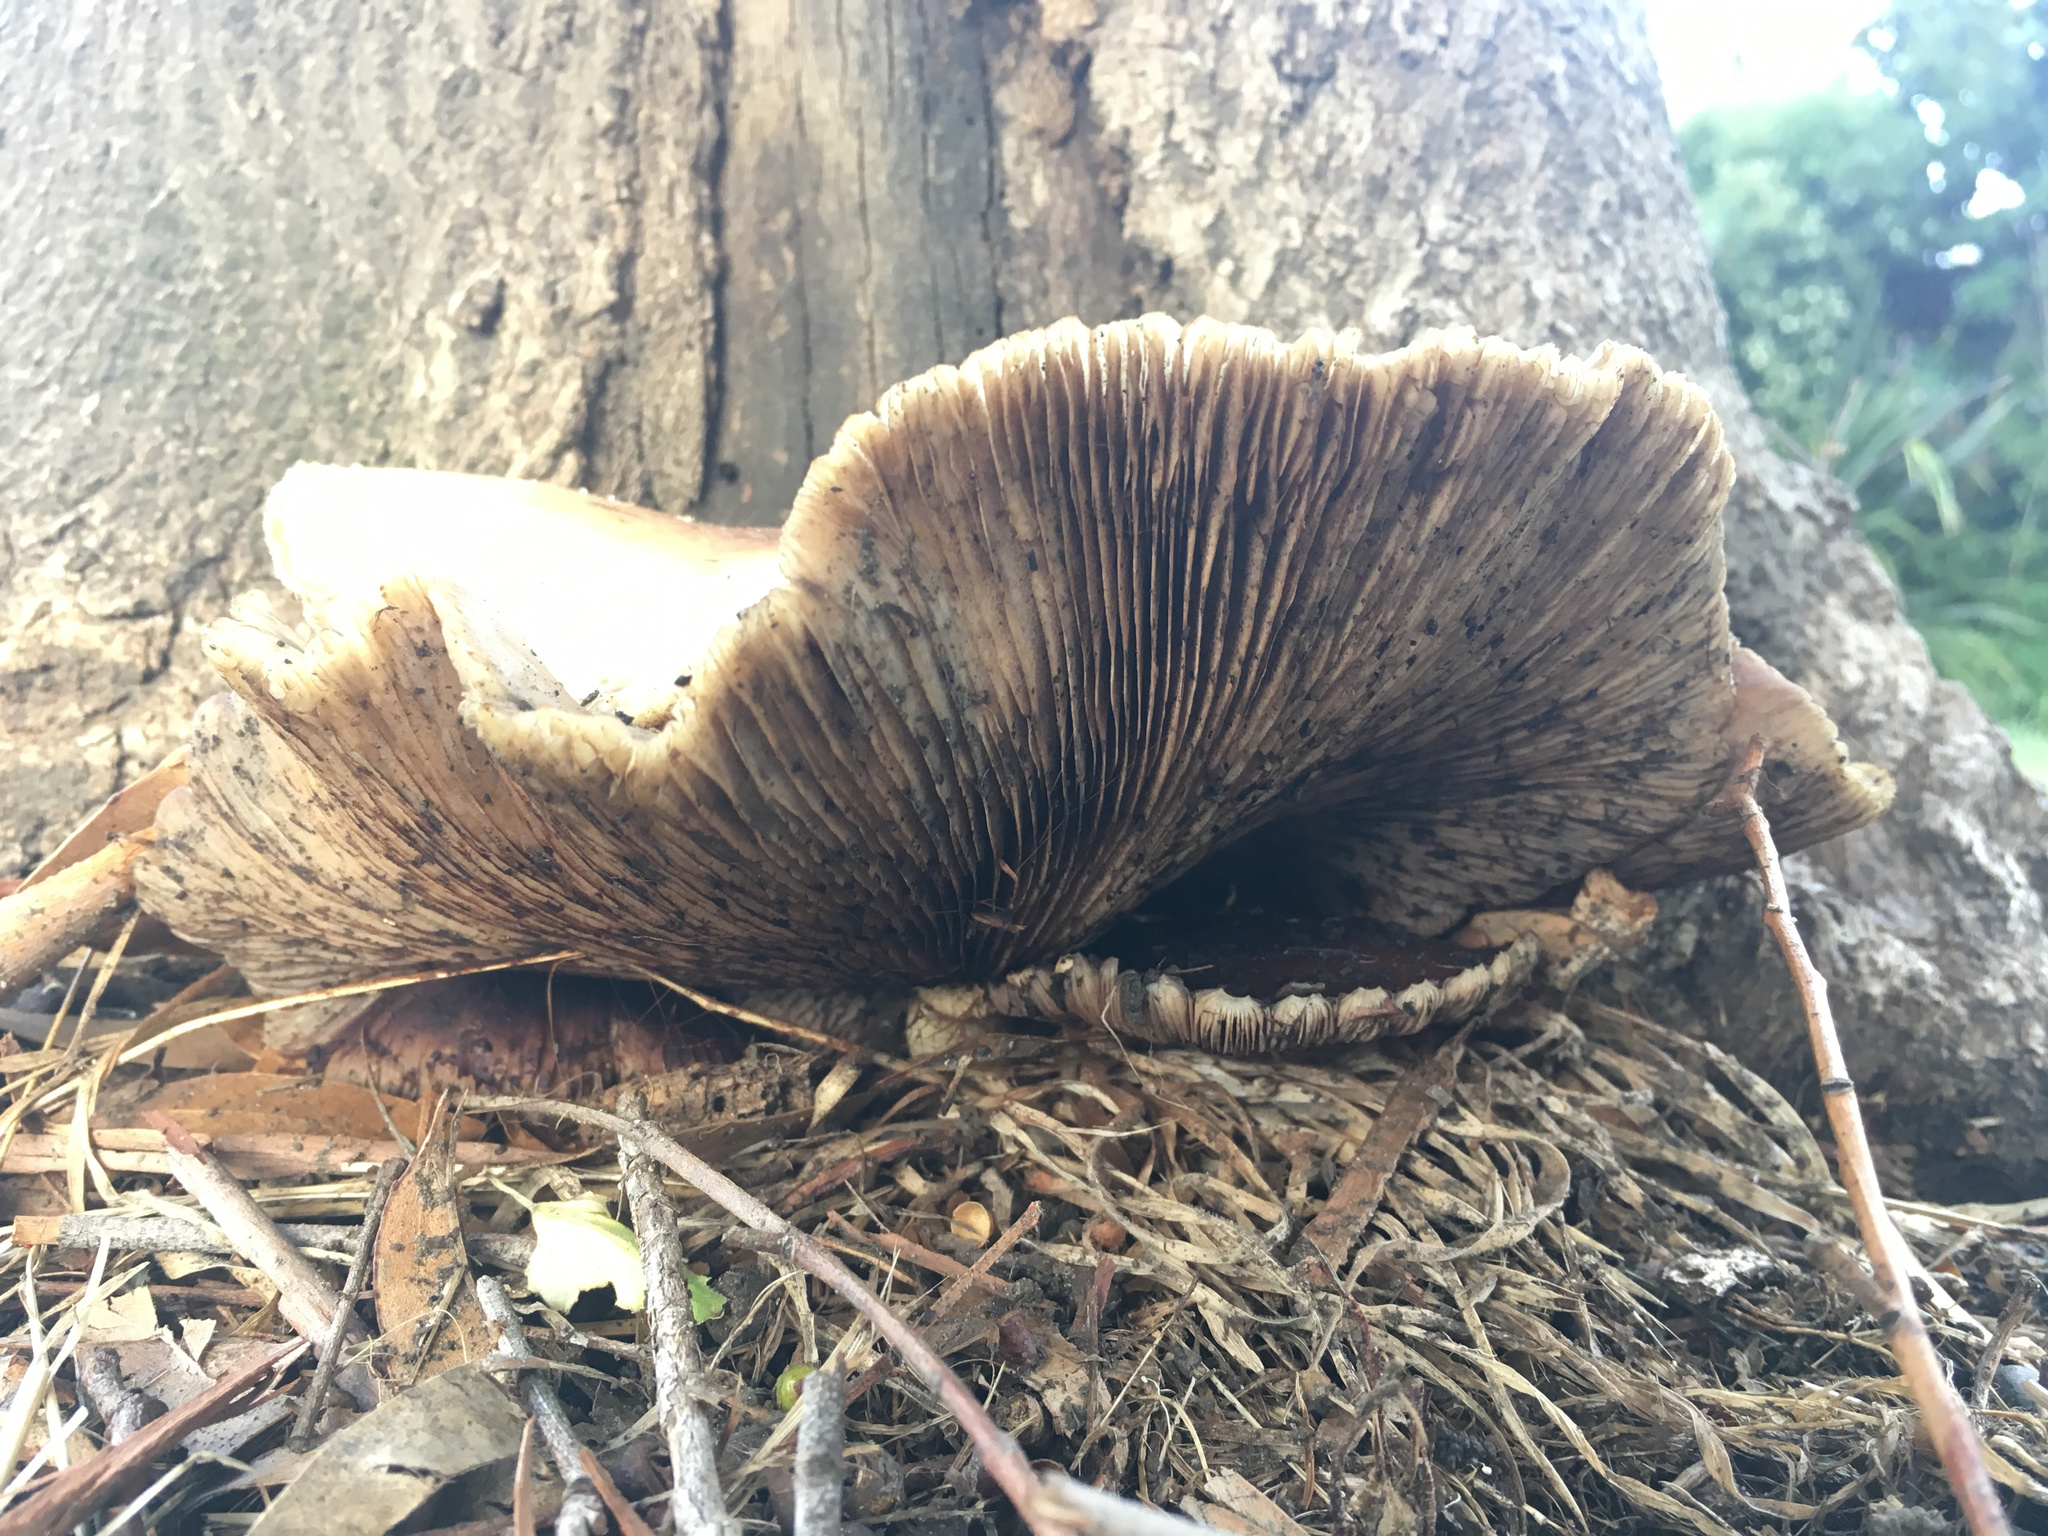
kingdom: Fungi
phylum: Basidiomycota
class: Agaricomycetes
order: Agaricales
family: Tubariaceae
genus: Cyclocybe
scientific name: Cyclocybe parasitica
